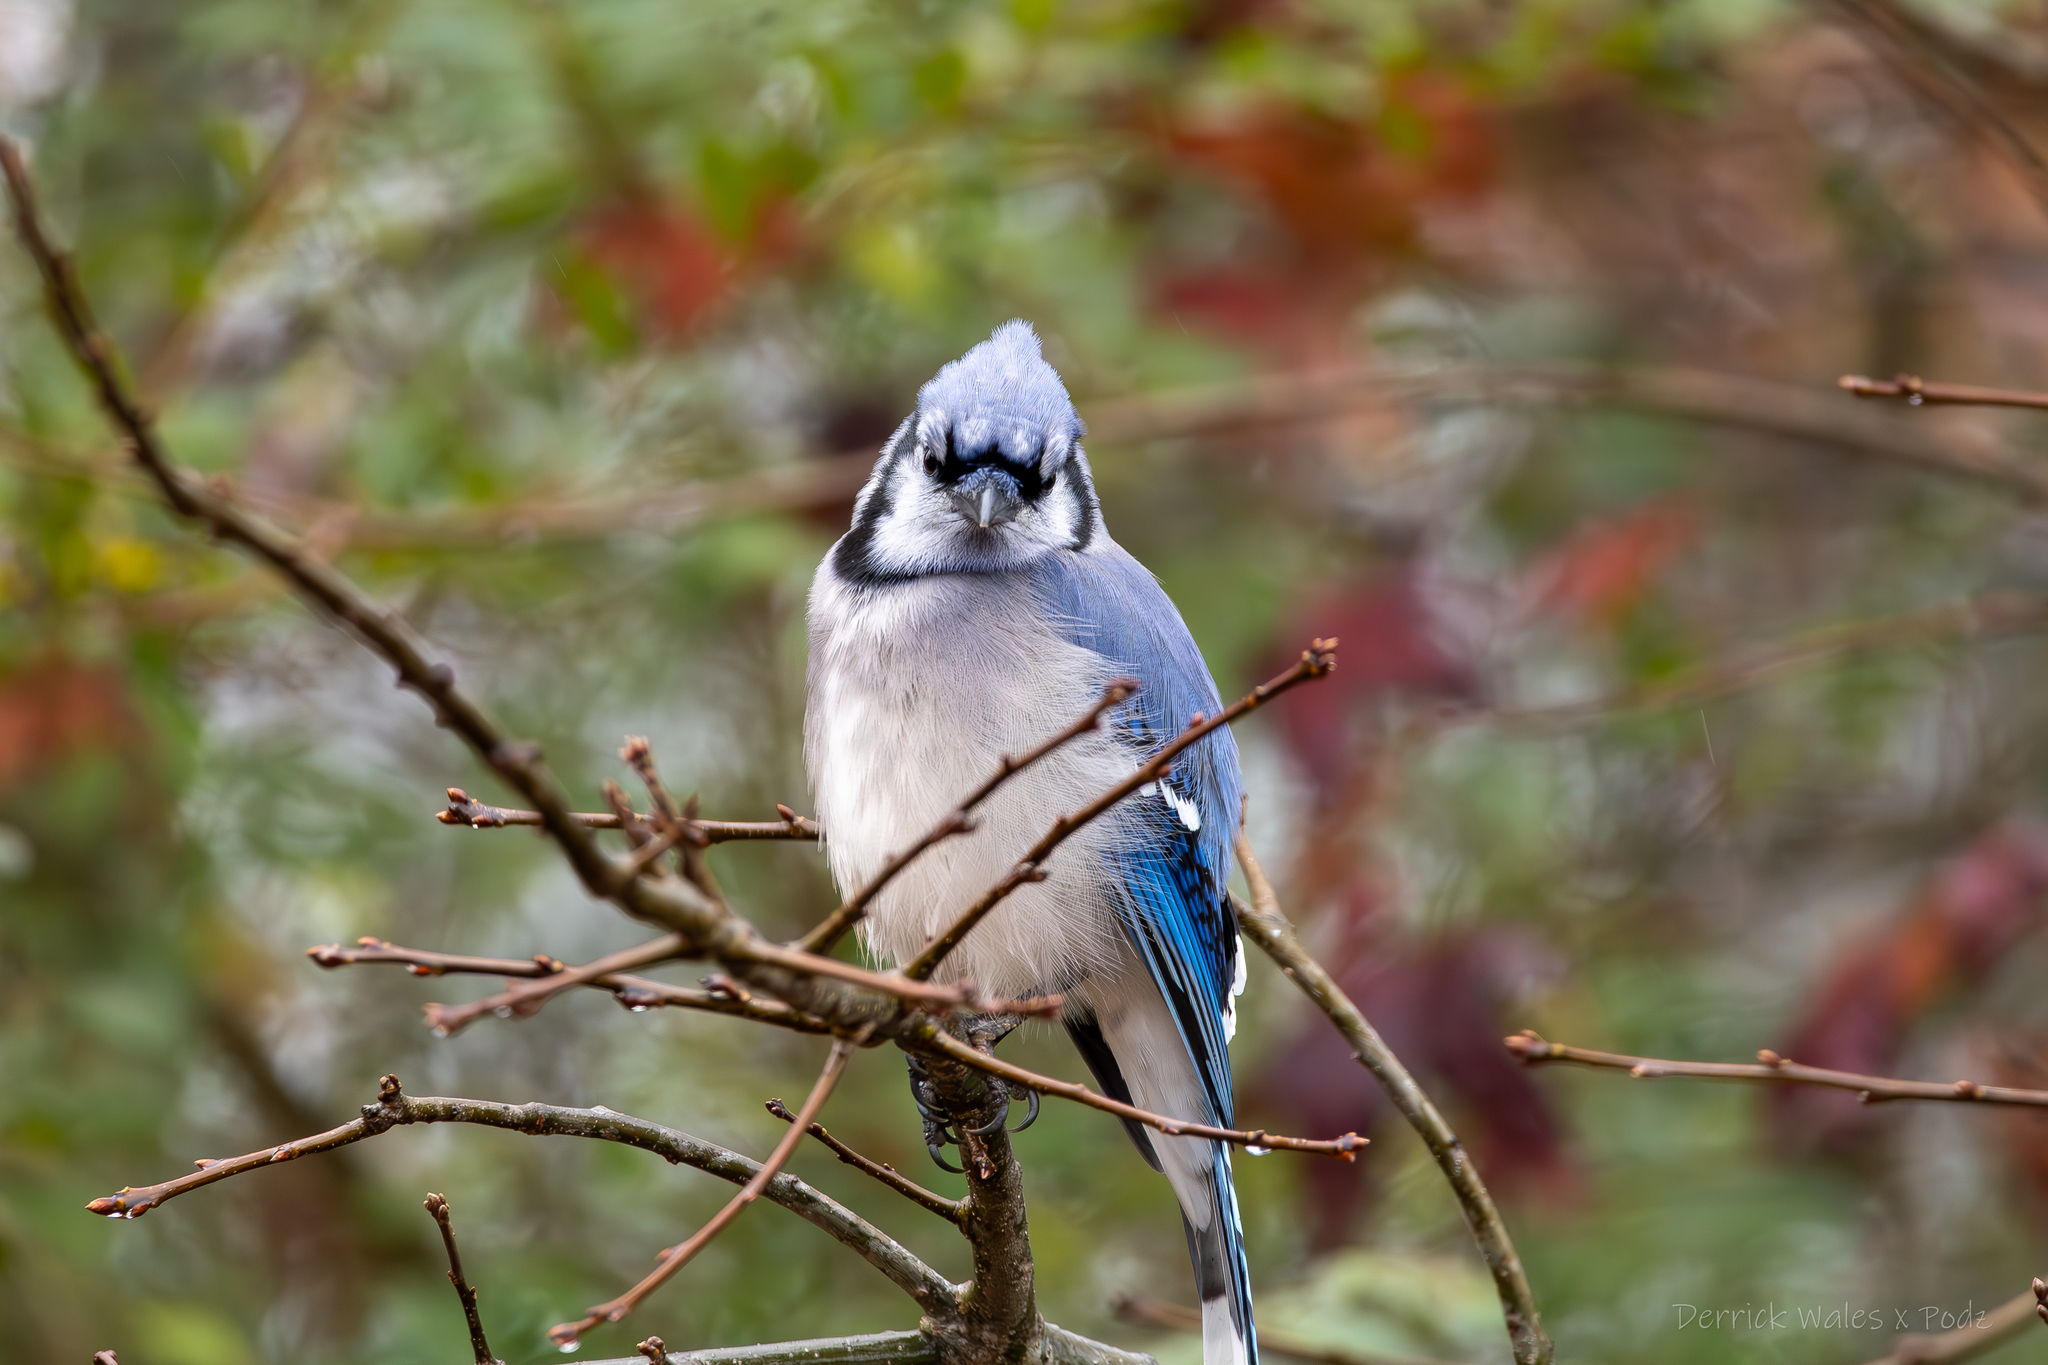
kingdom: Animalia
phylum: Chordata
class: Aves
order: Passeriformes
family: Corvidae
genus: Cyanocitta
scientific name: Cyanocitta cristata
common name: Blue jay
